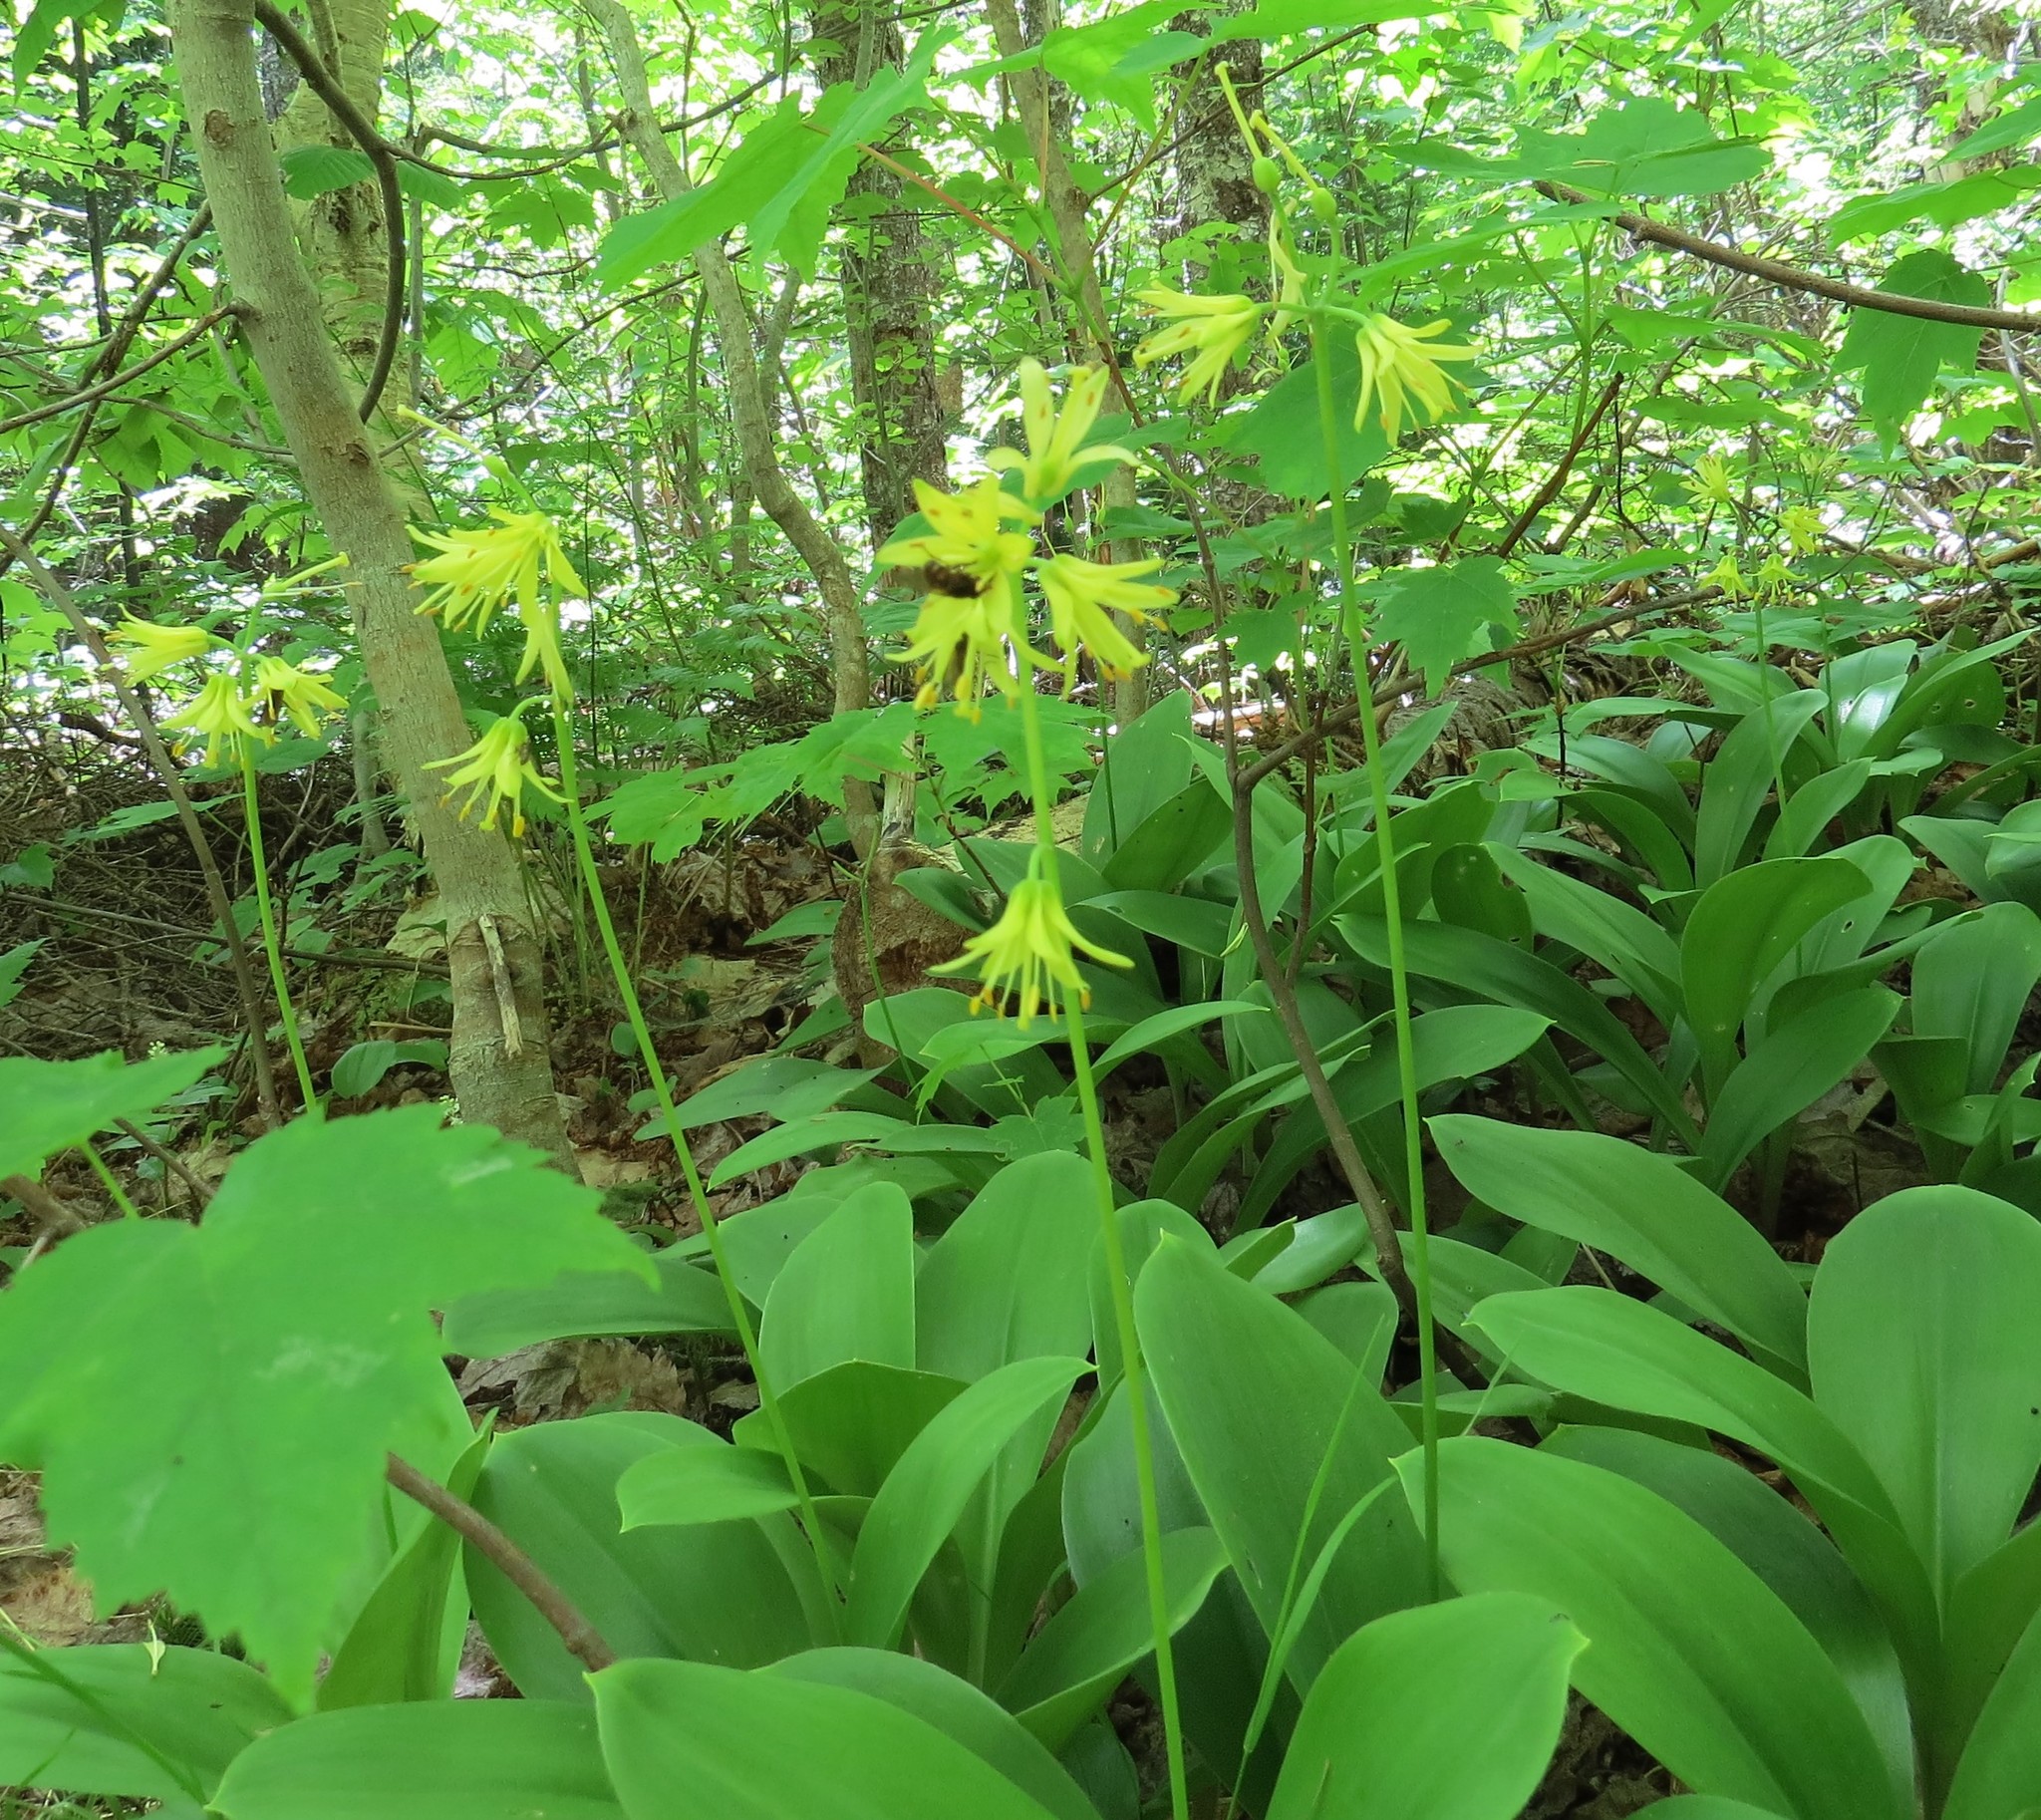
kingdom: Plantae
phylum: Tracheophyta
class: Liliopsida
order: Liliales
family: Liliaceae
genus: Clintonia
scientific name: Clintonia borealis
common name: Yellow clintonia
